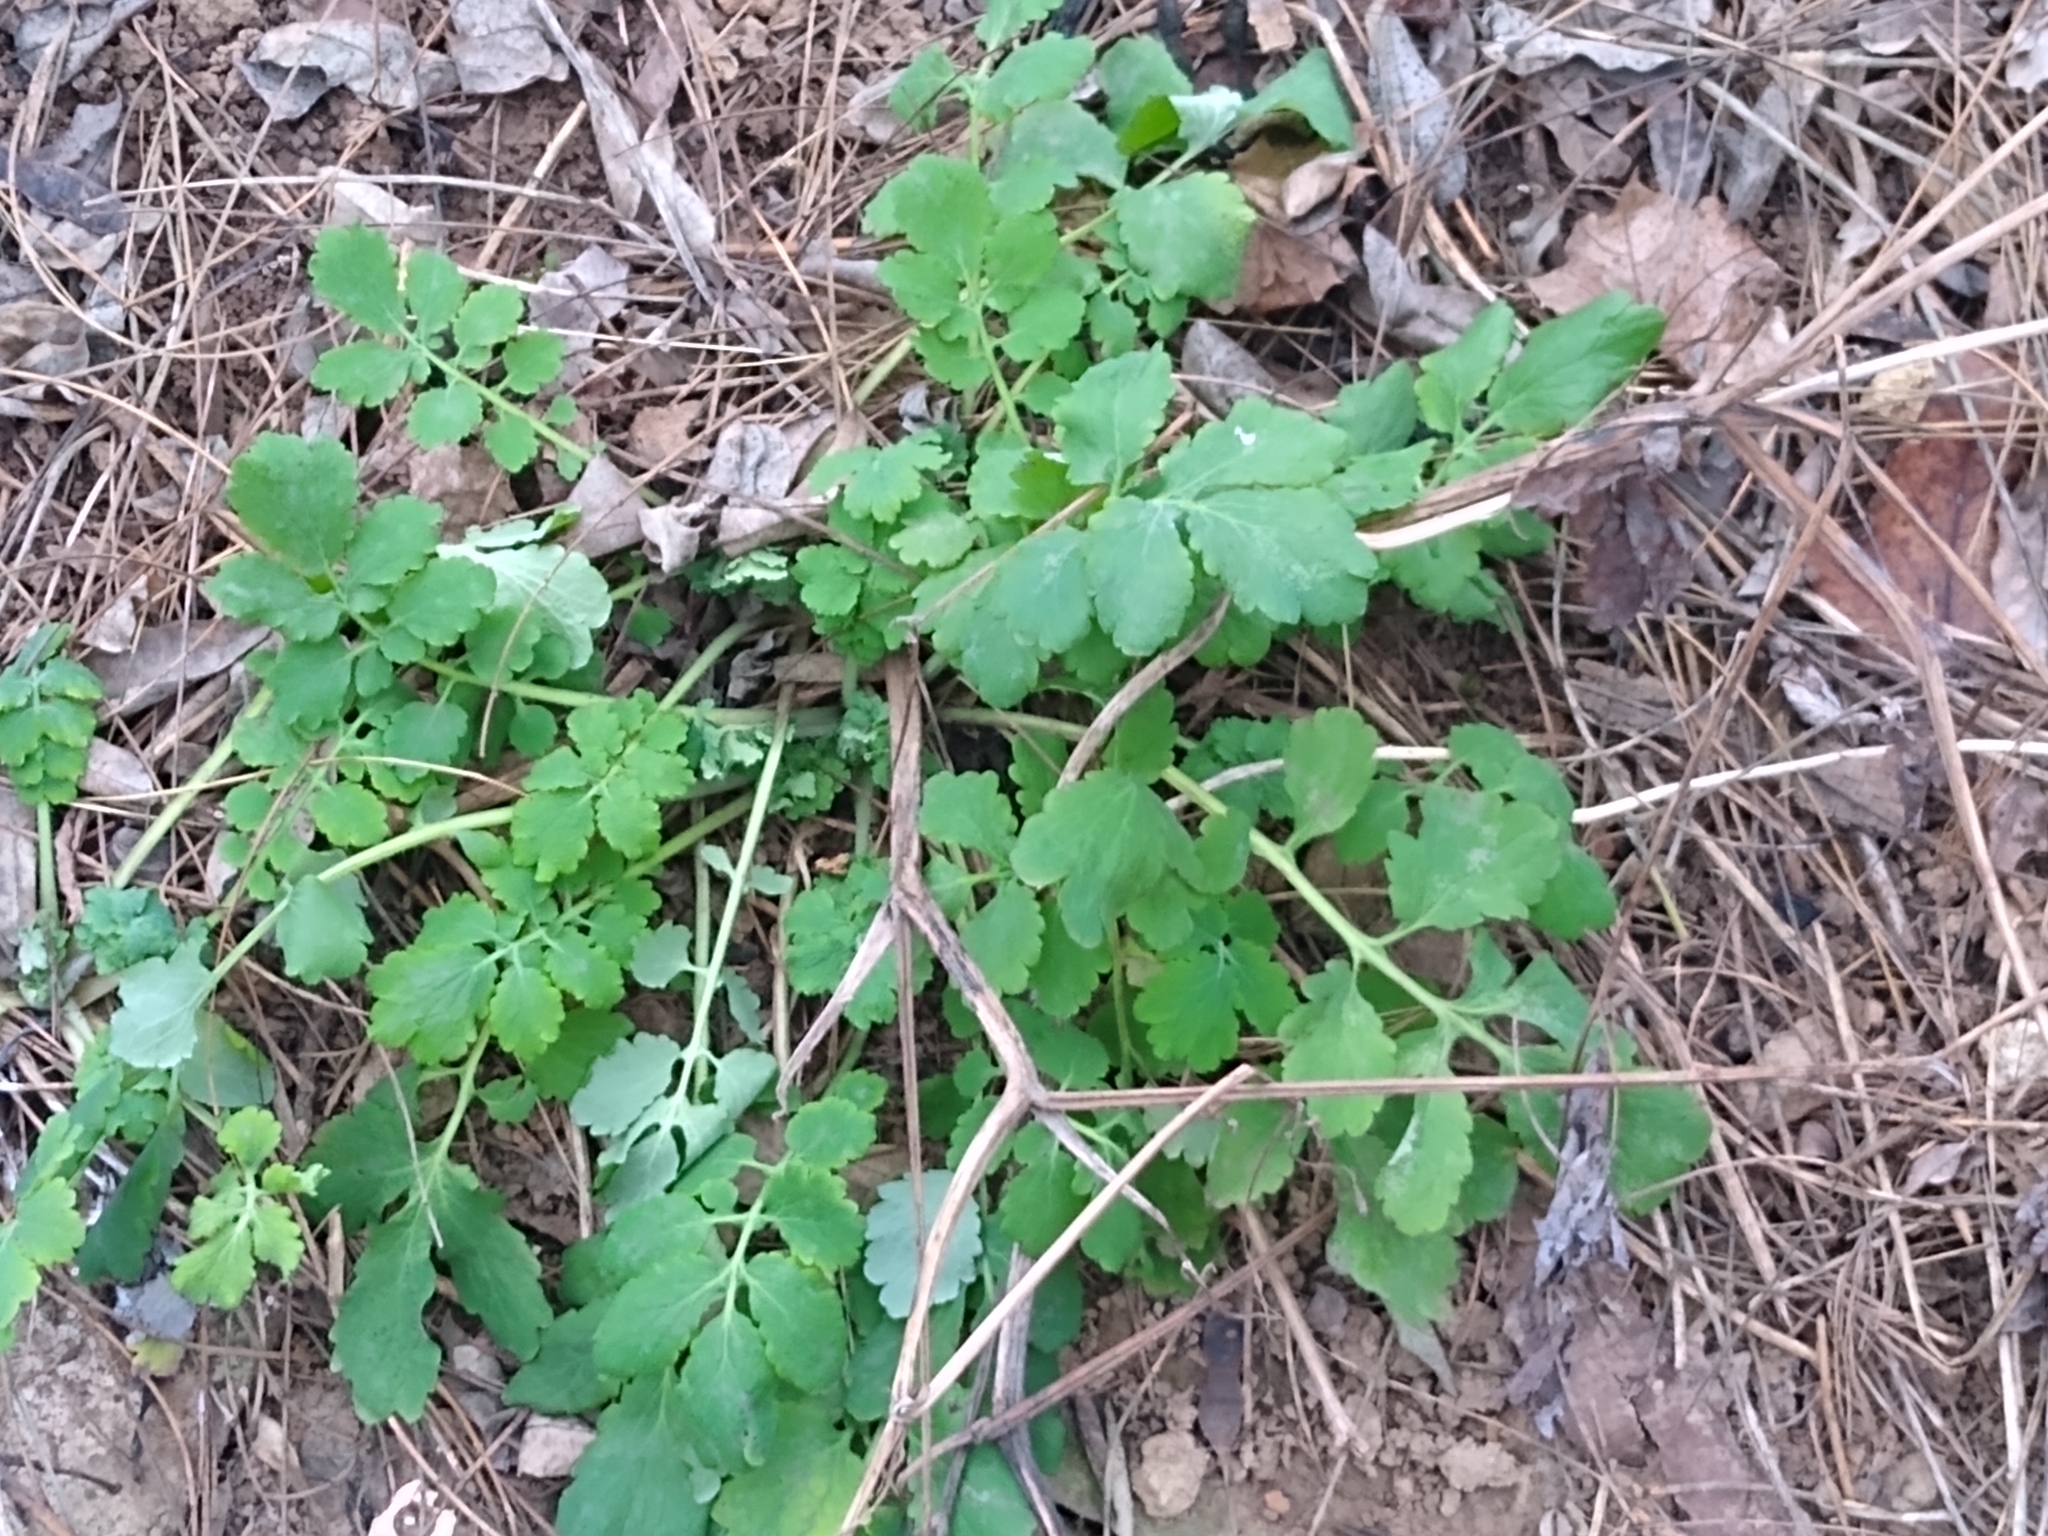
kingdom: Plantae
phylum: Tracheophyta
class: Magnoliopsida
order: Ranunculales
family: Papaveraceae
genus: Chelidonium
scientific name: Chelidonium majus
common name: Greater celandine
